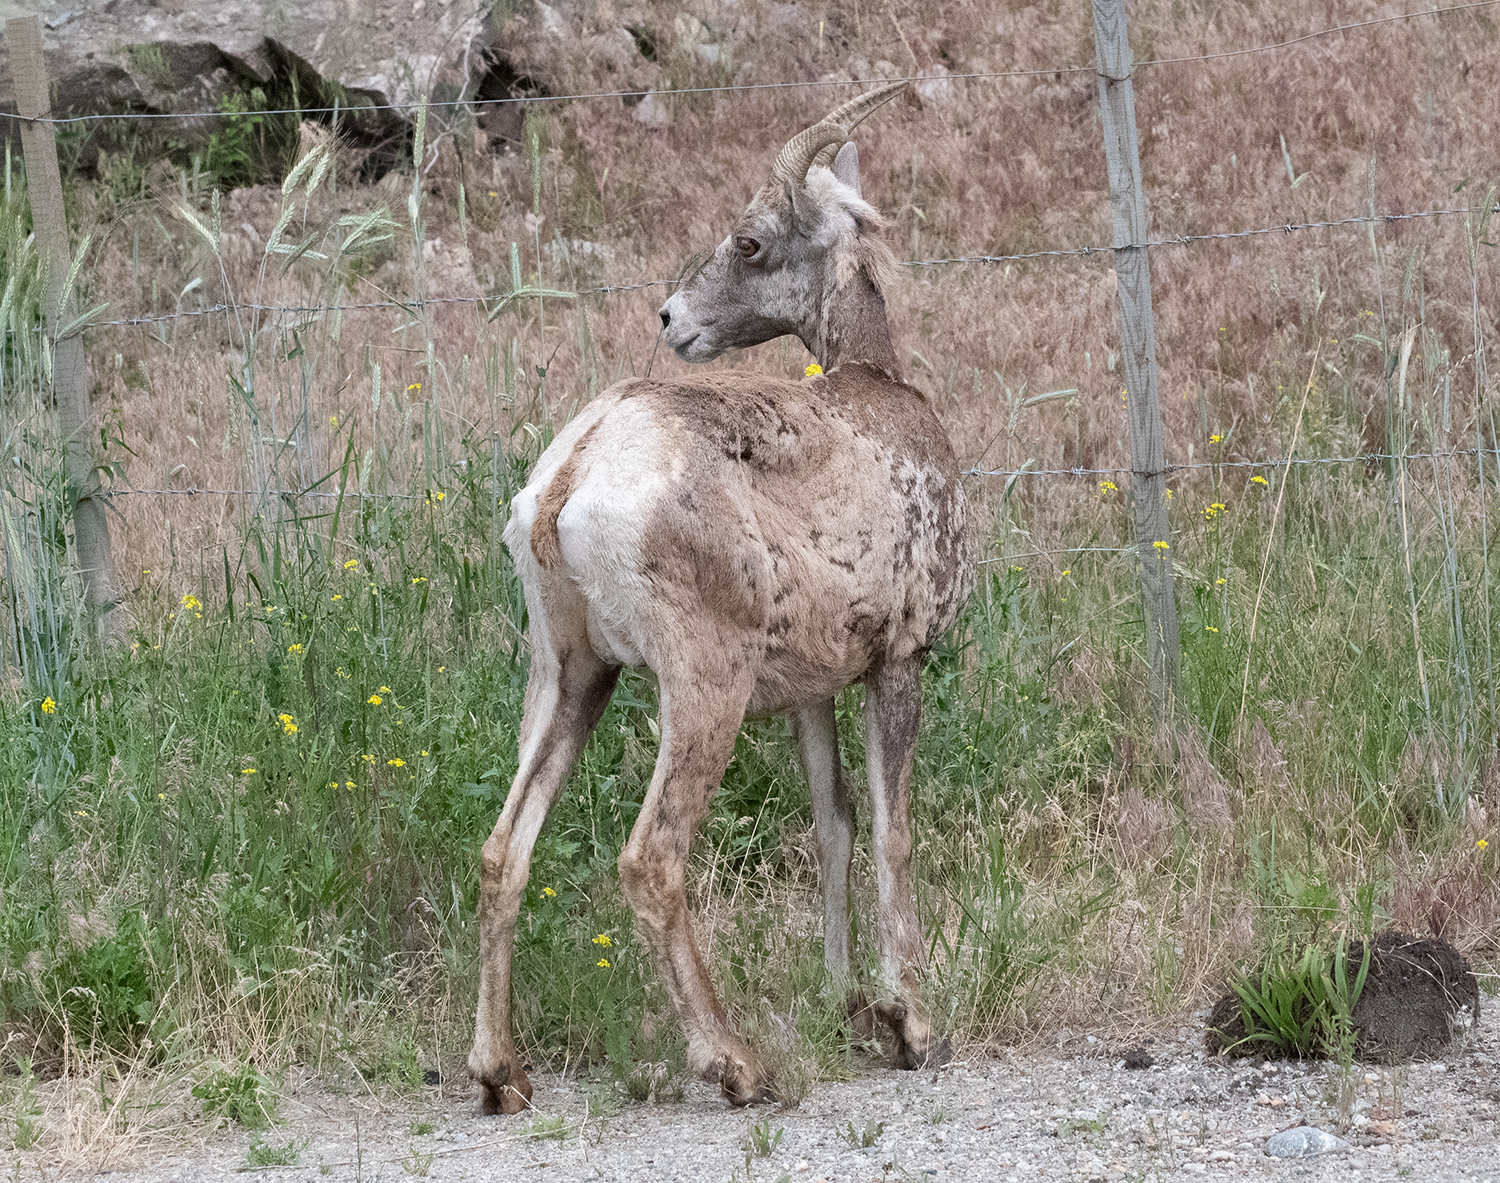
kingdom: Animalia
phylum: Chordata
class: Mammalia
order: Artiodactyla
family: Bovidae
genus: Ovis
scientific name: Ovis canadensis
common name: Bighorn sheep
